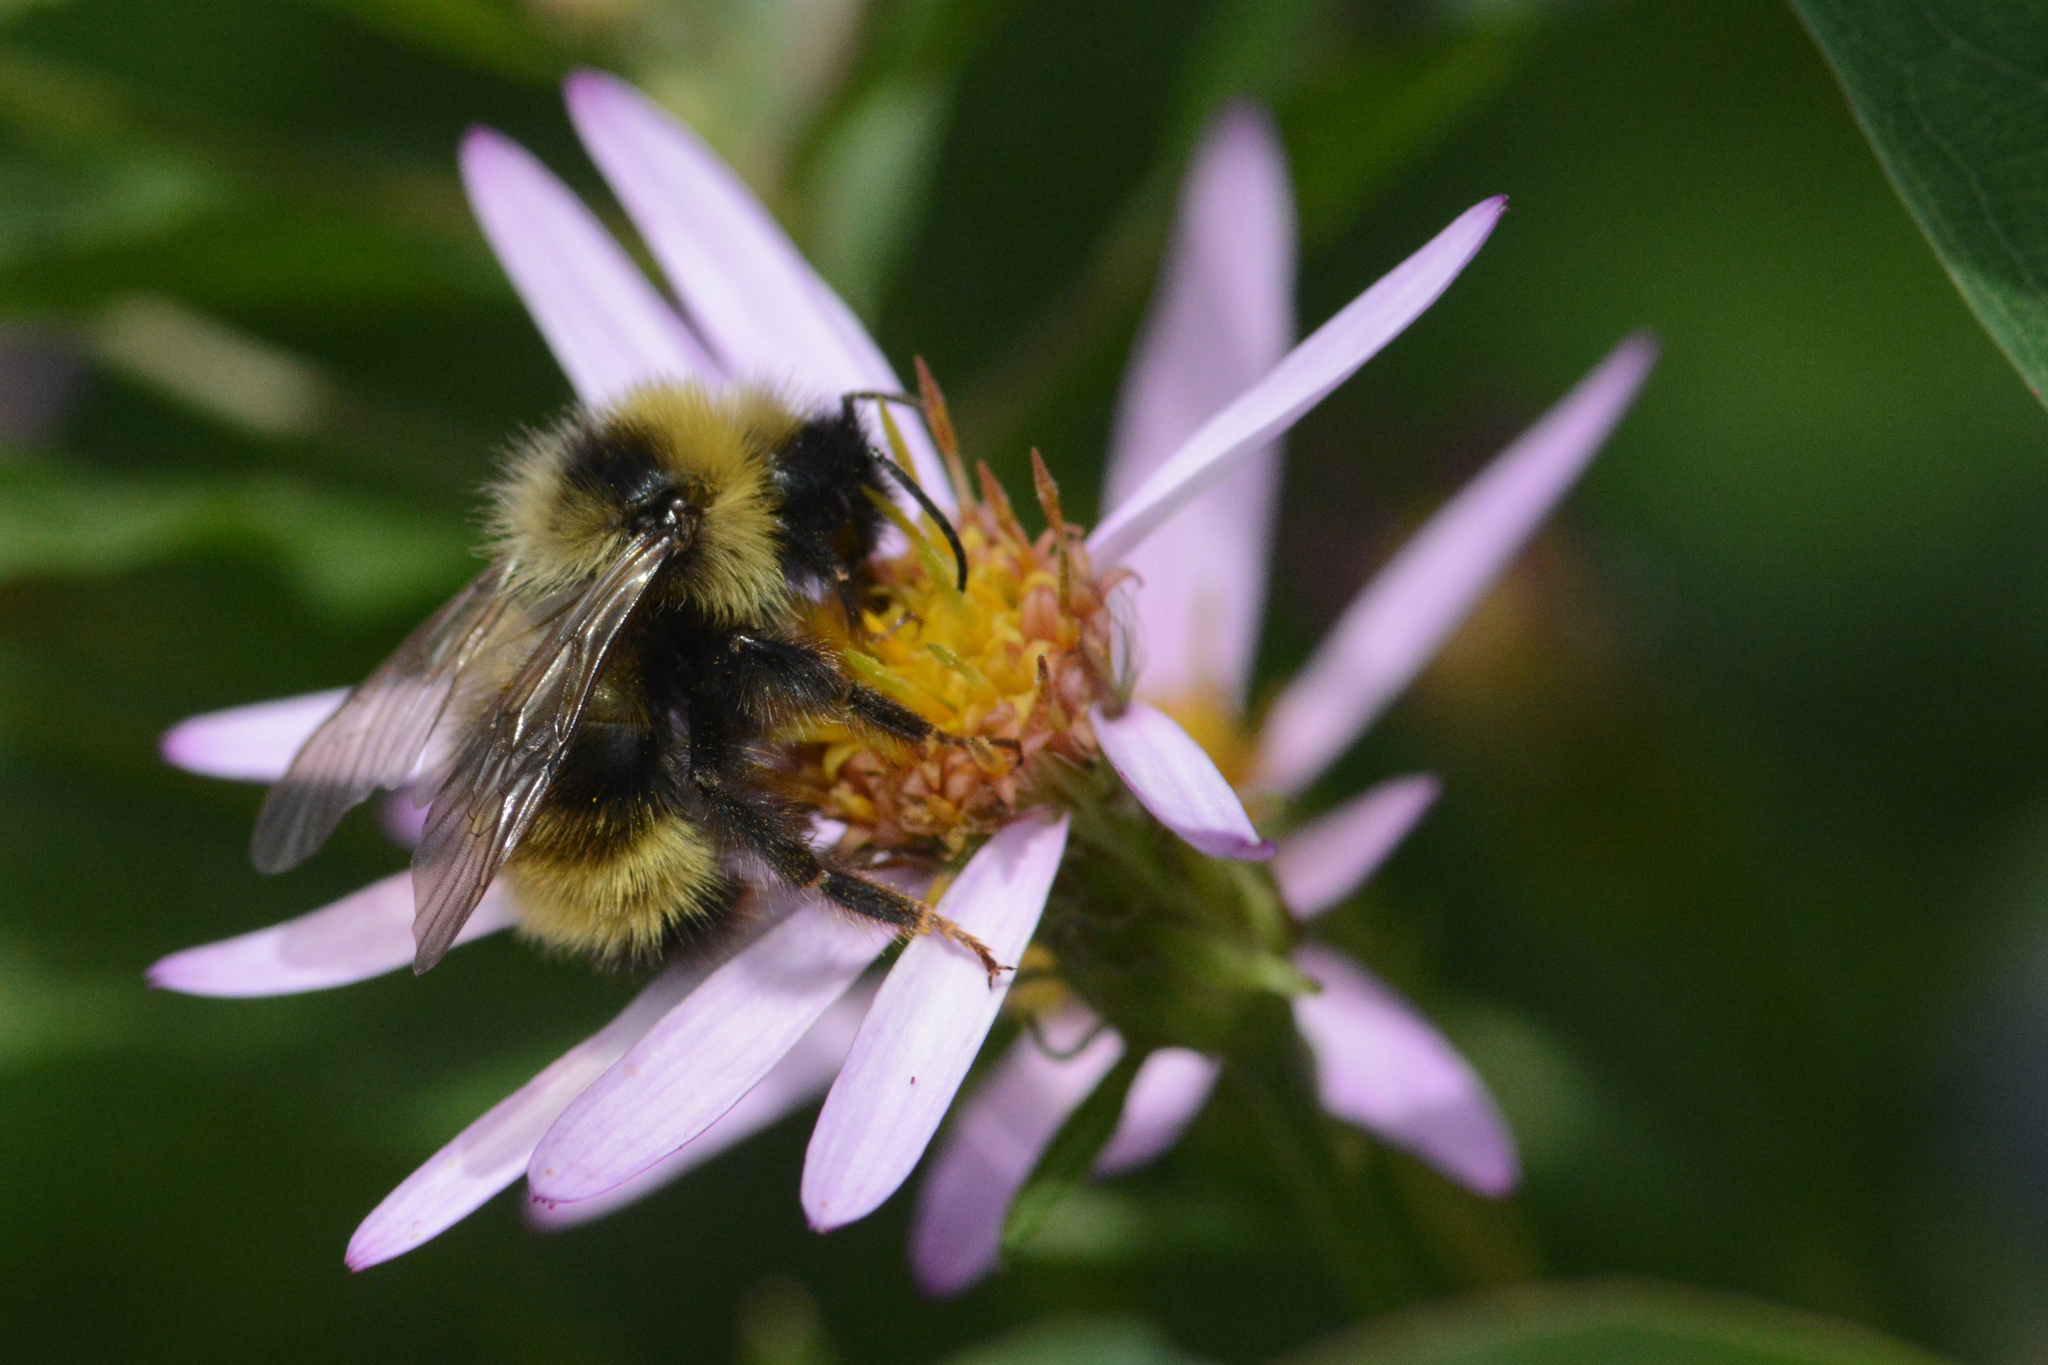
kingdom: Animalia
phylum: Arthropoda
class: Insecta
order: Hymenoptera
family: Apidae
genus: Bombus
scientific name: Bombus flavidus
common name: Fernald cuckoo bumble bee
